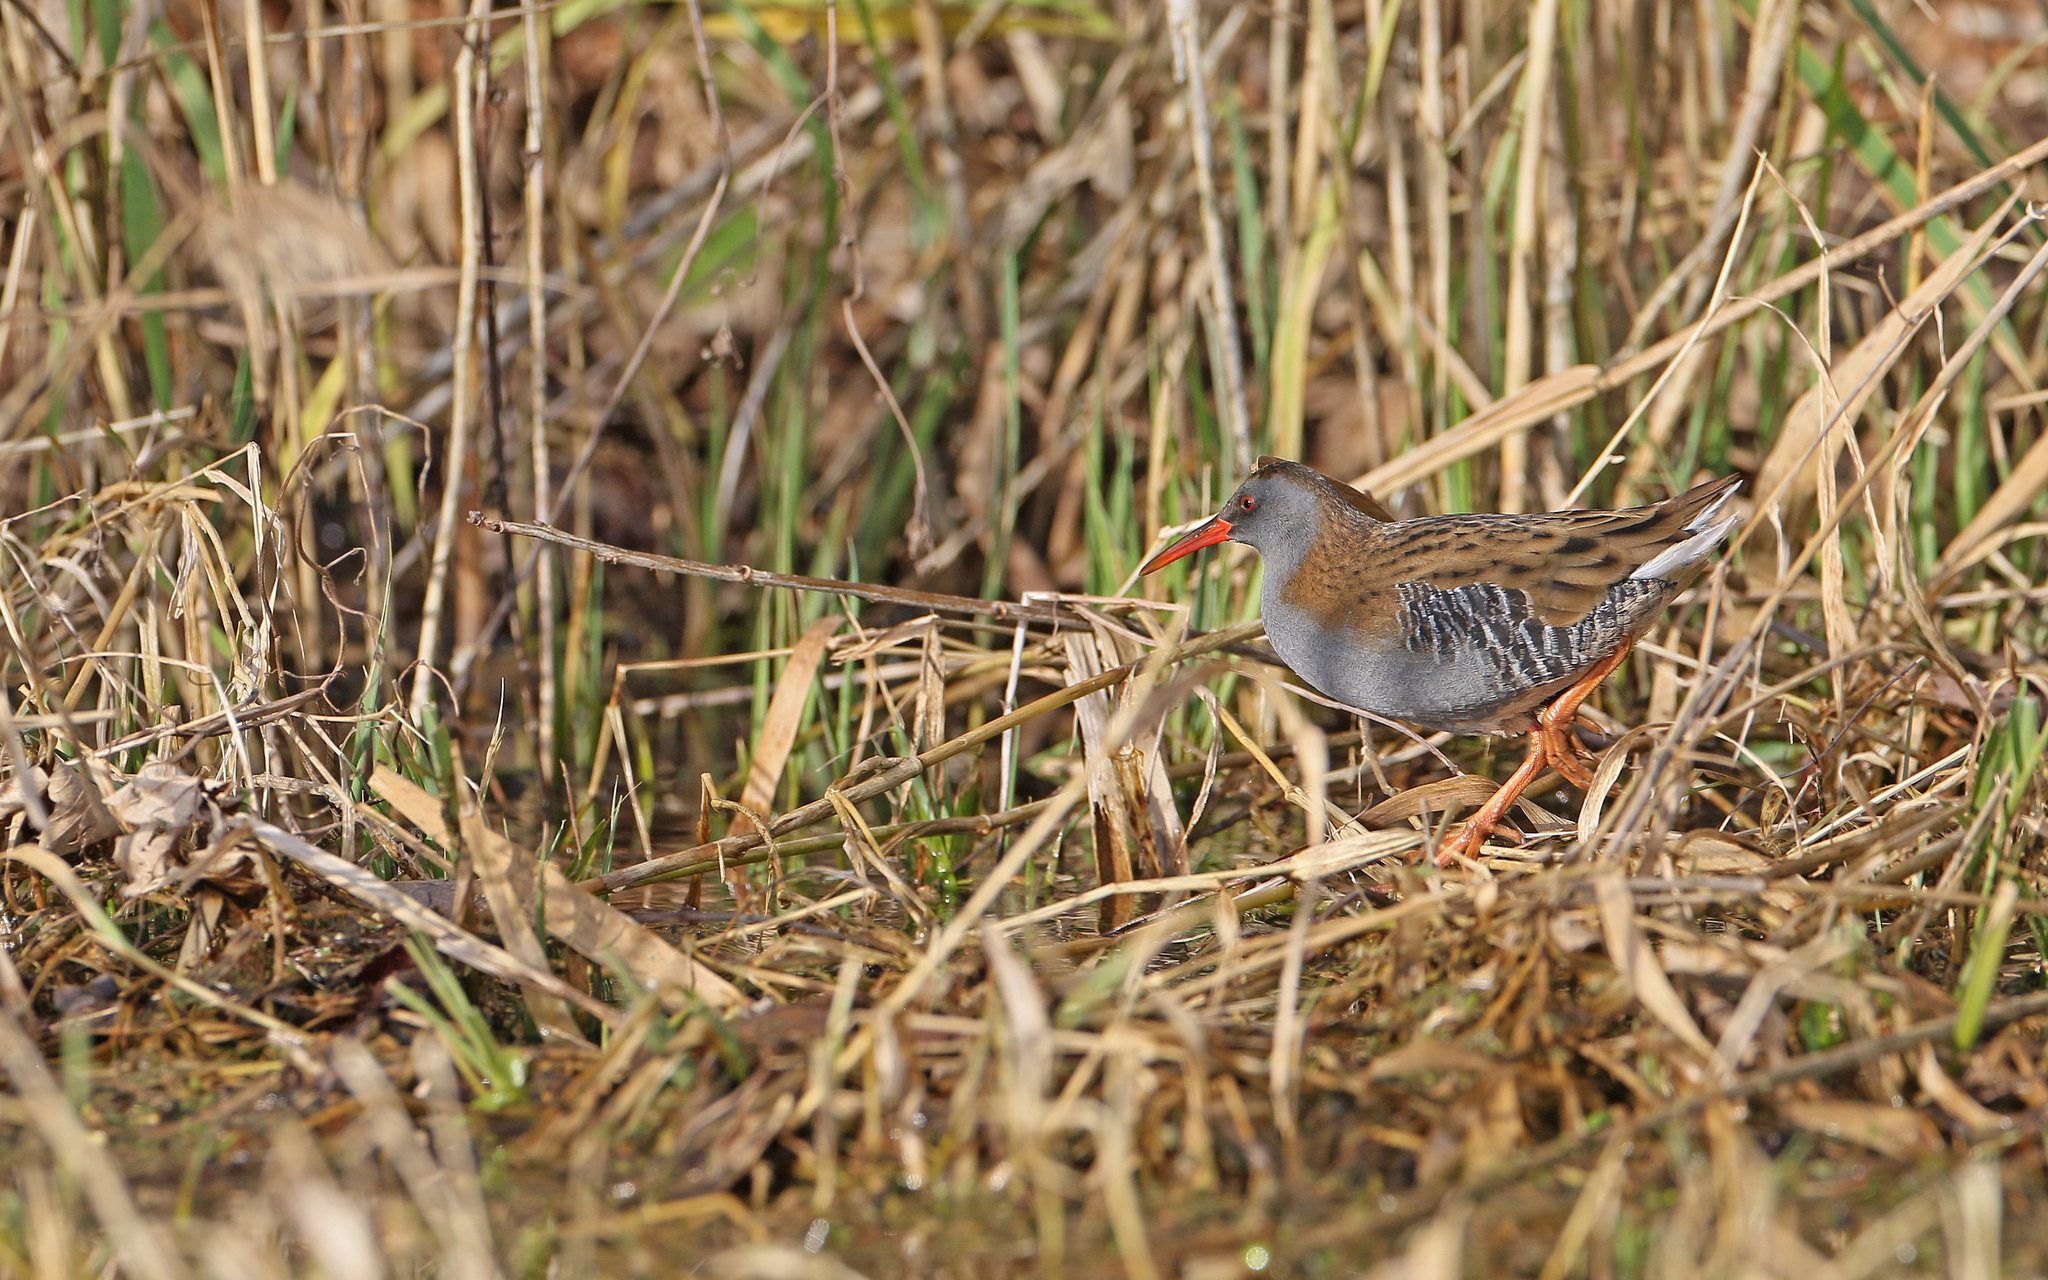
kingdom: Animalia
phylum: Chordata
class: Aves
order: Gruiformes
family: Rallidae
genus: Rallus
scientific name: Rallus aquaticus
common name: Water rail
